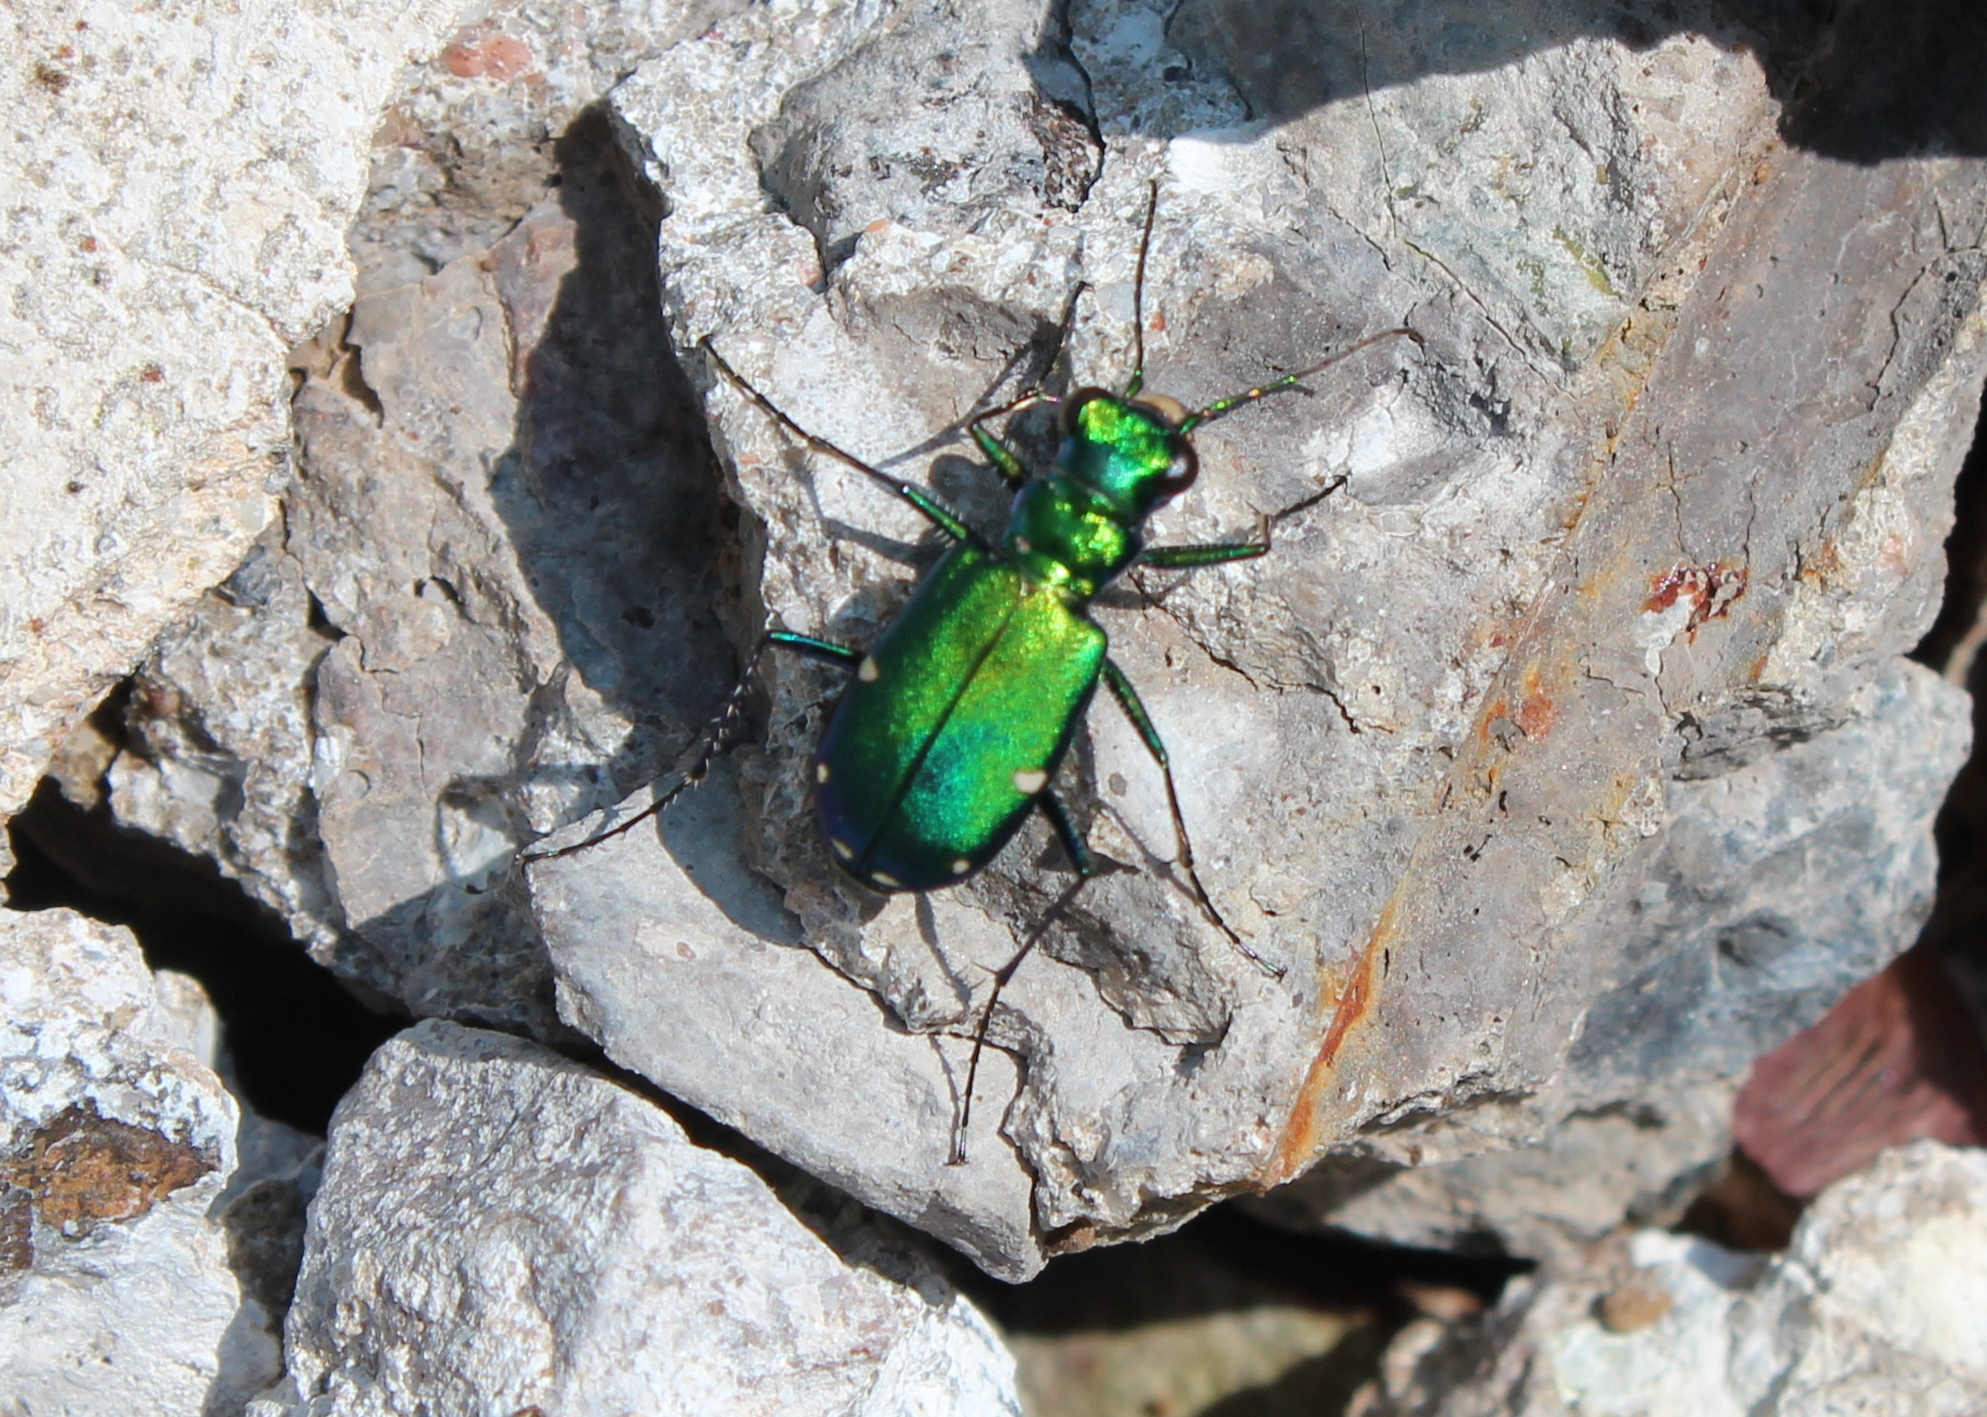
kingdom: Animalia
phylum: Arthropoda
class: Insecta
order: Coleoptera
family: Carabidae
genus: Cicindela
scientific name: Cicindela sexguttata
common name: Six-spotted tiger beetle
